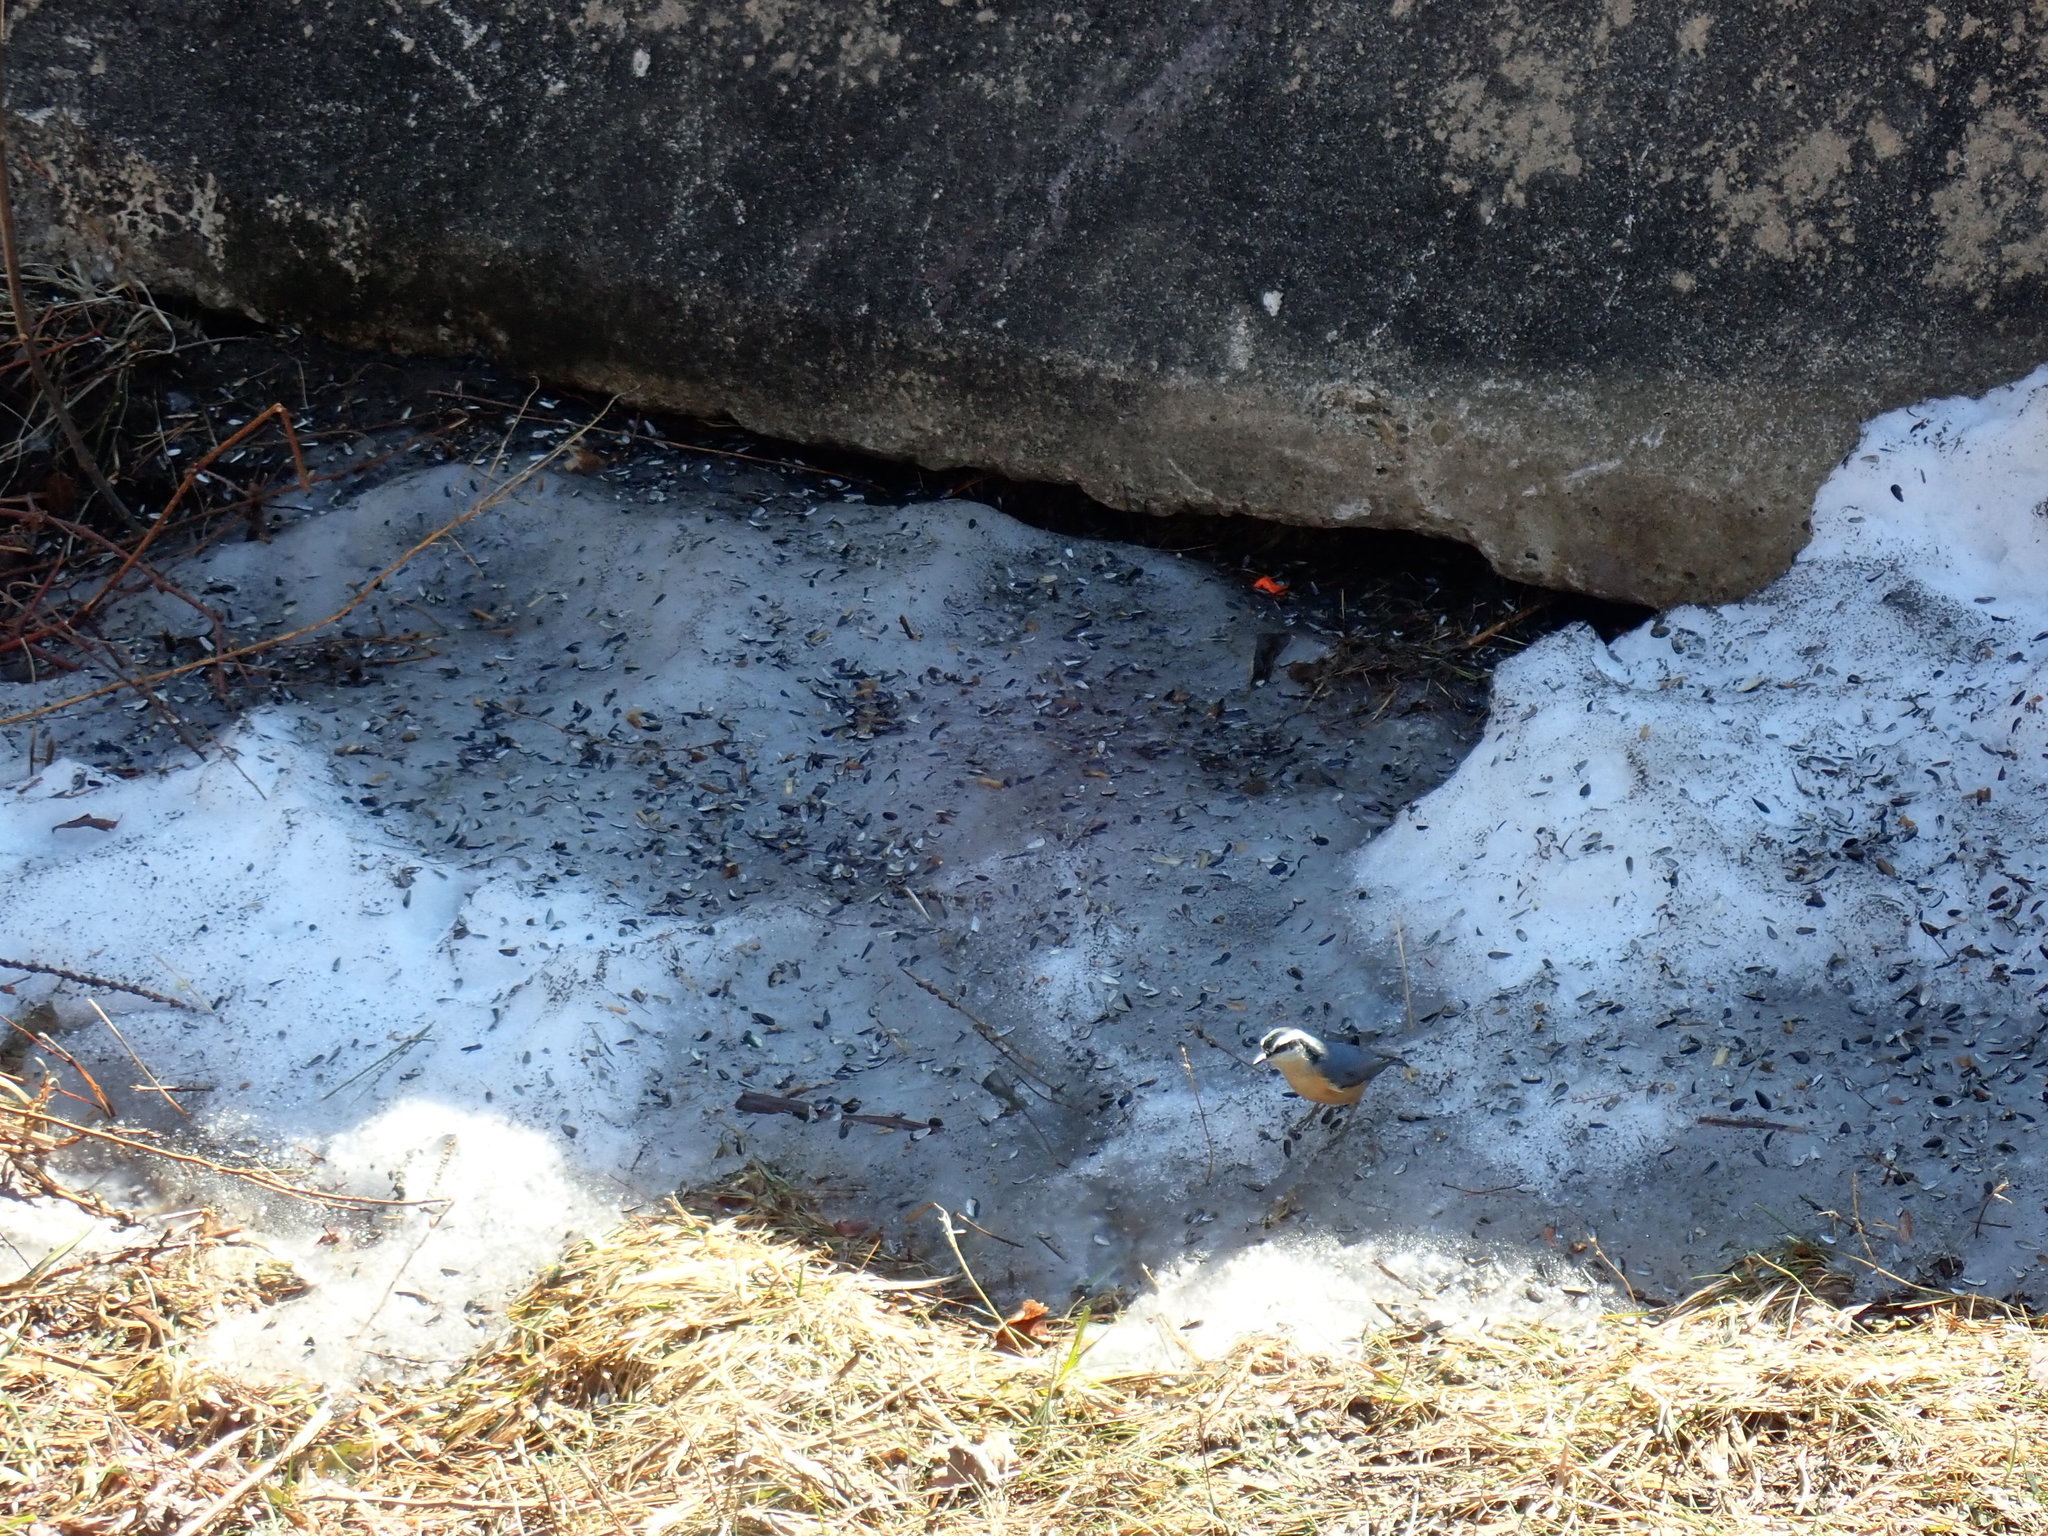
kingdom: Animalia
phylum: Chordata
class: Aves
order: Passeriformes
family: Sittidae
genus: Sitta
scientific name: Sitta canadensis
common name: Red-breasted nuthatch
